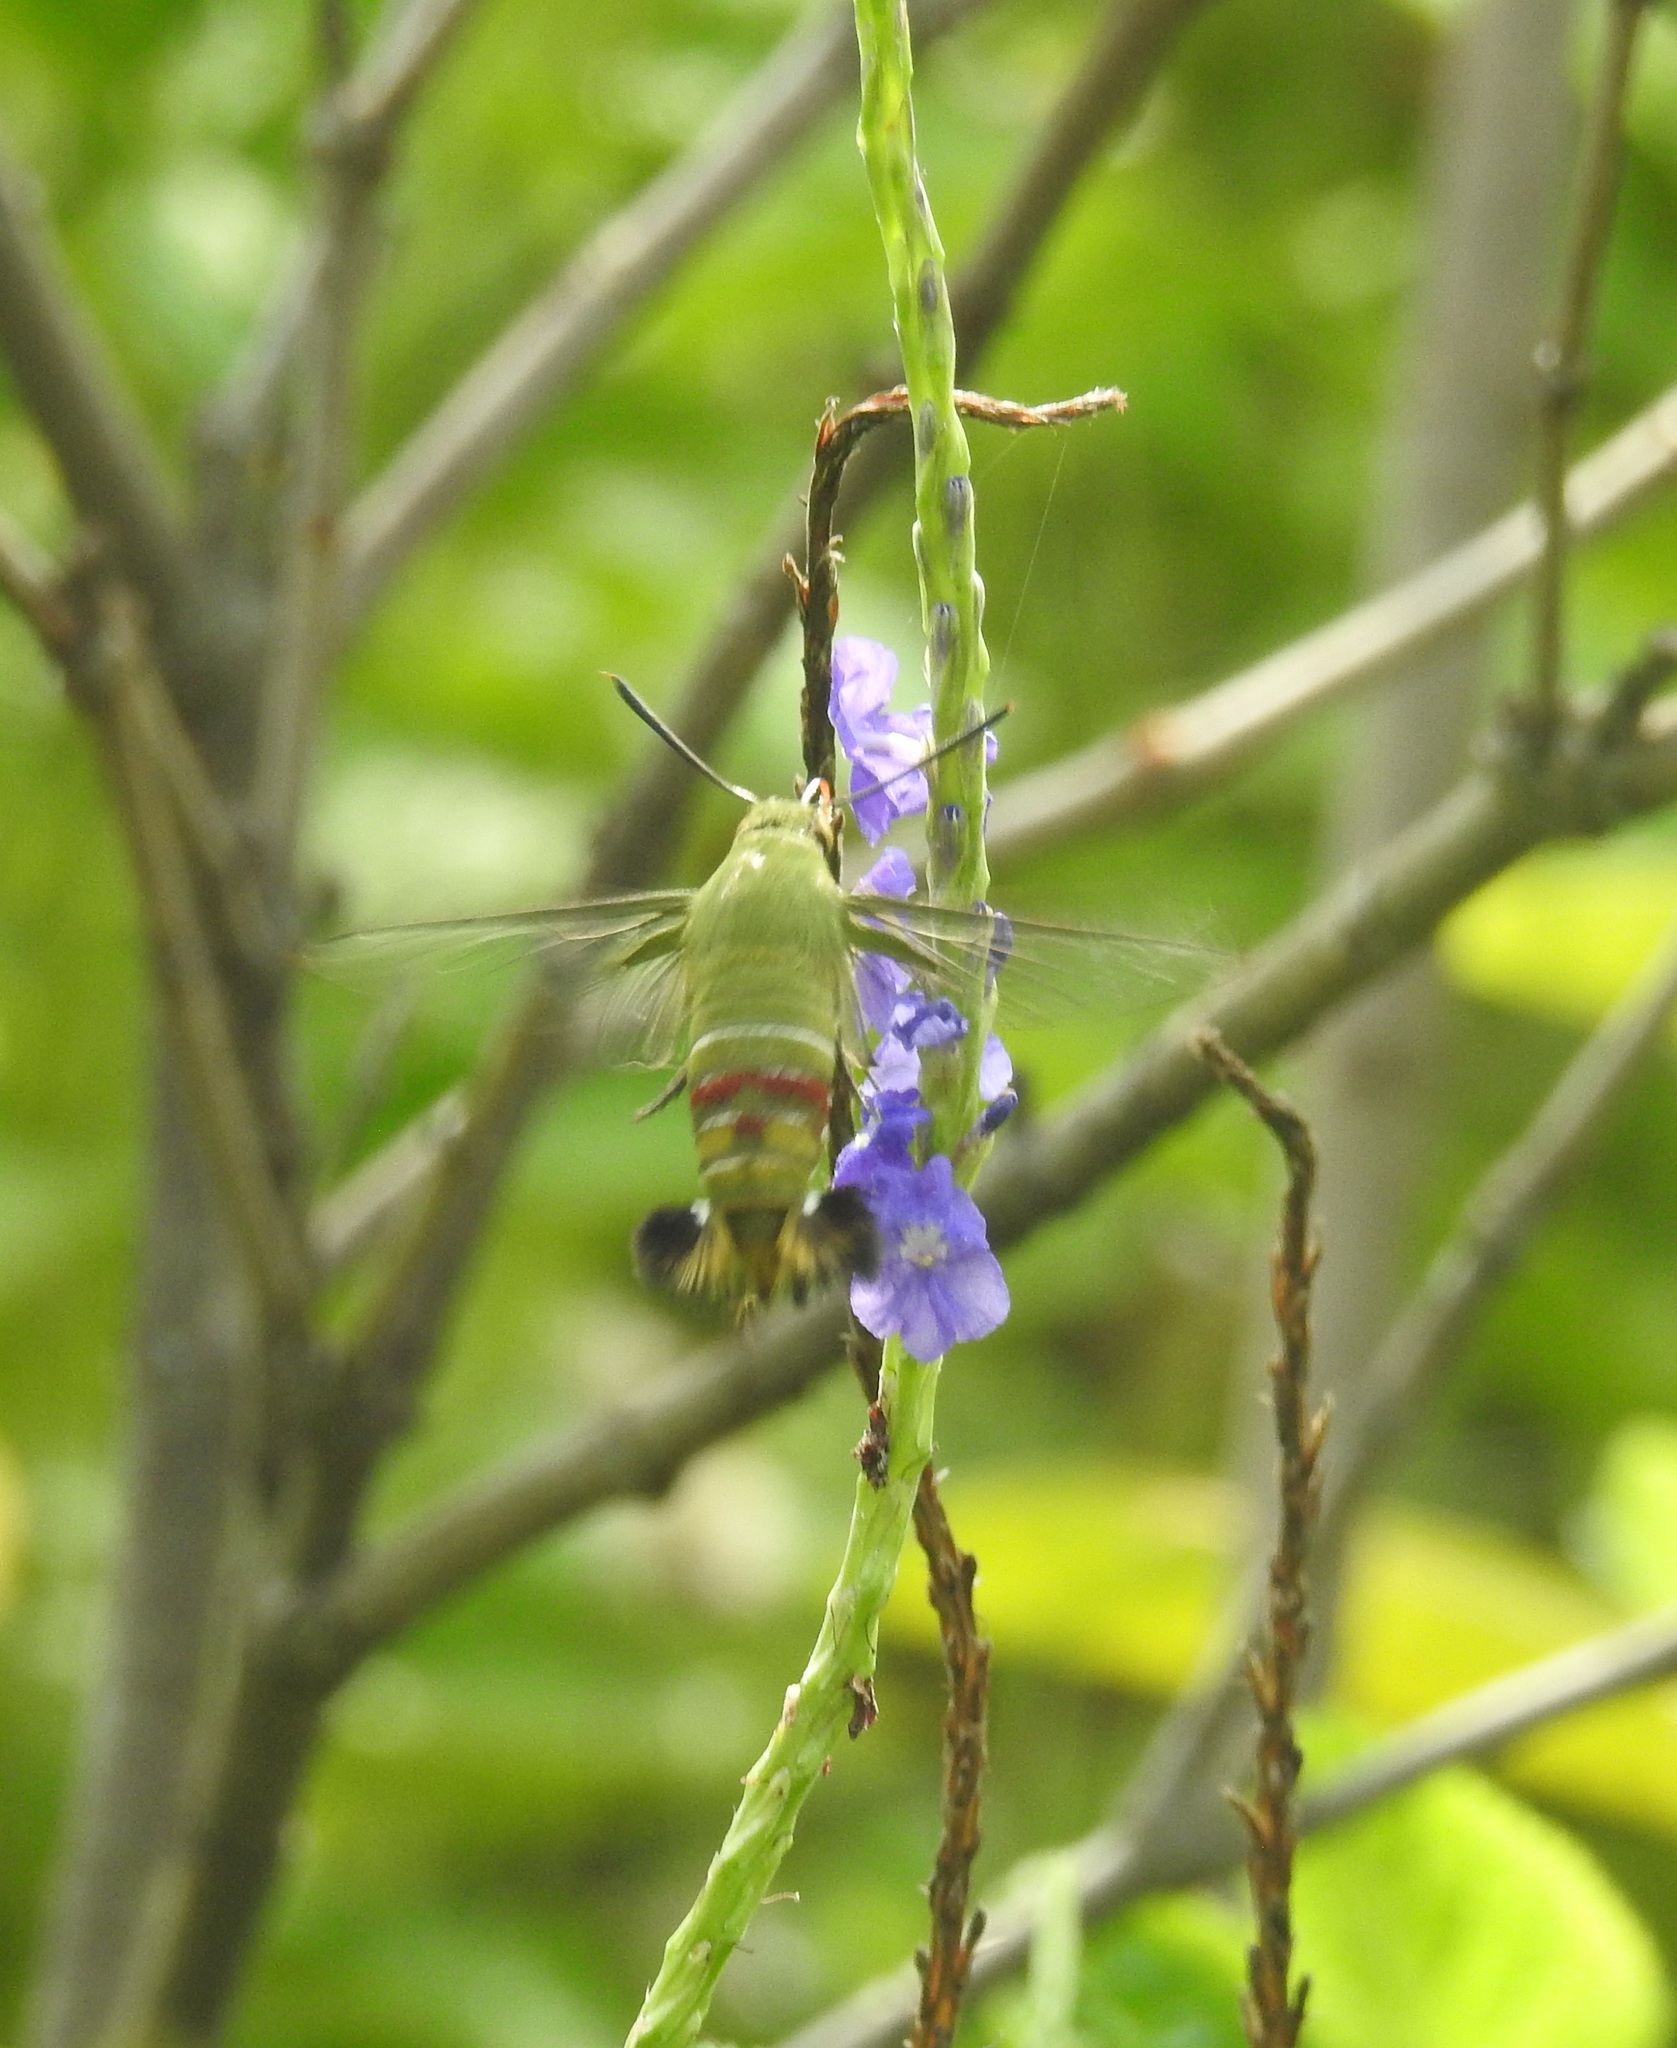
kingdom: Animalia
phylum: Arthropoda
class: Insecta
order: Lepidoptera
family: Sphingidae
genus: Cephonodes
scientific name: Cephonodes hylas
